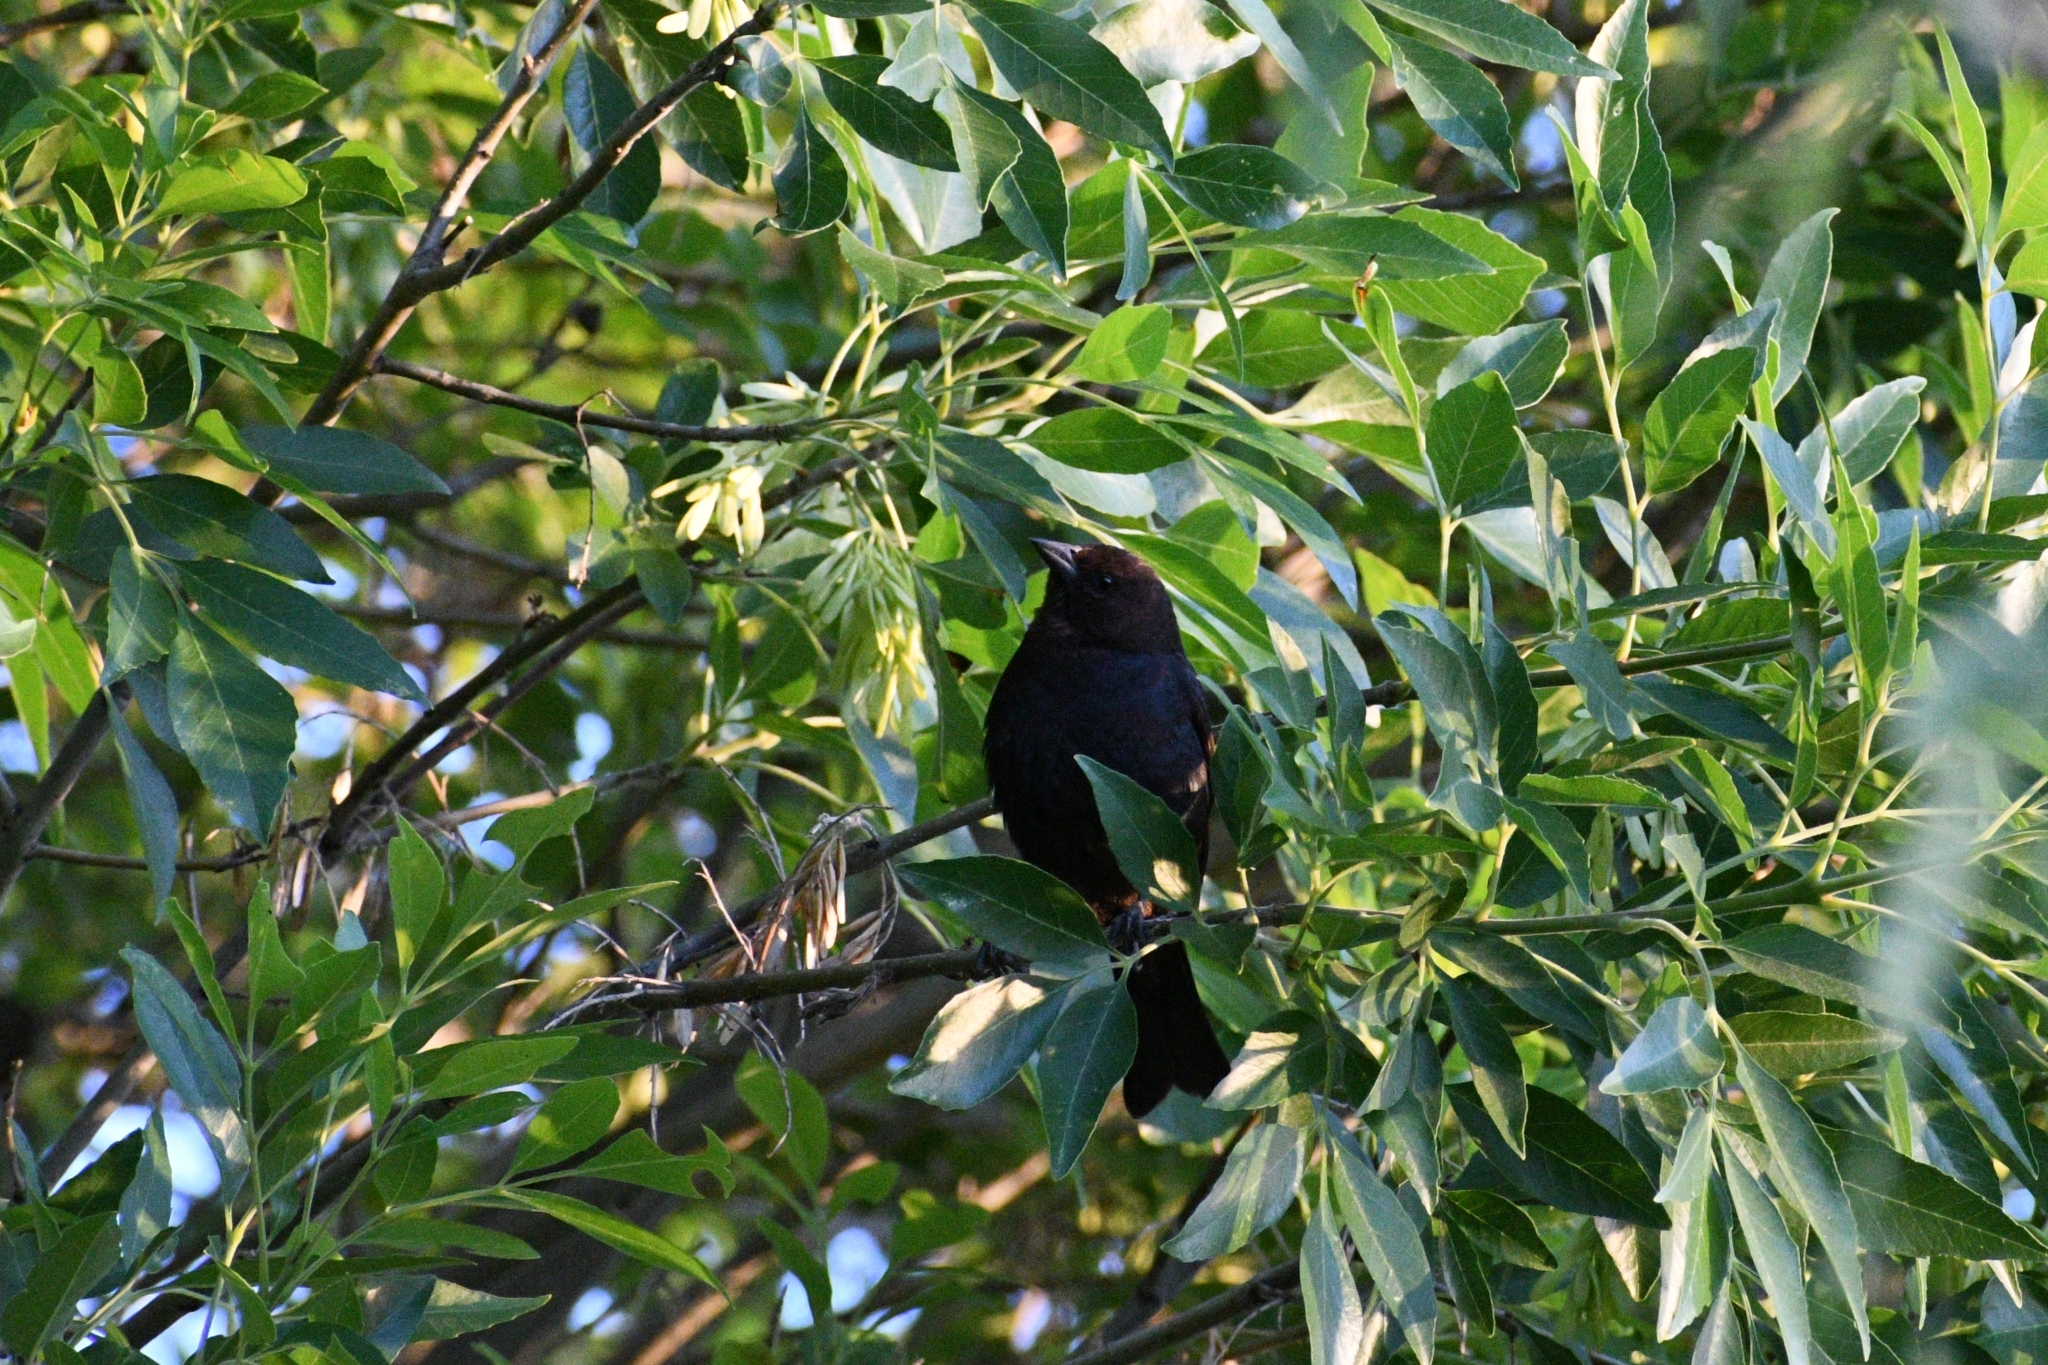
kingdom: Animalia
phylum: Chordata
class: Aves
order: Passeriformes
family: Icteridae
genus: Molothrus
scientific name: Molothrus ater
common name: Brown-headed cowbird
